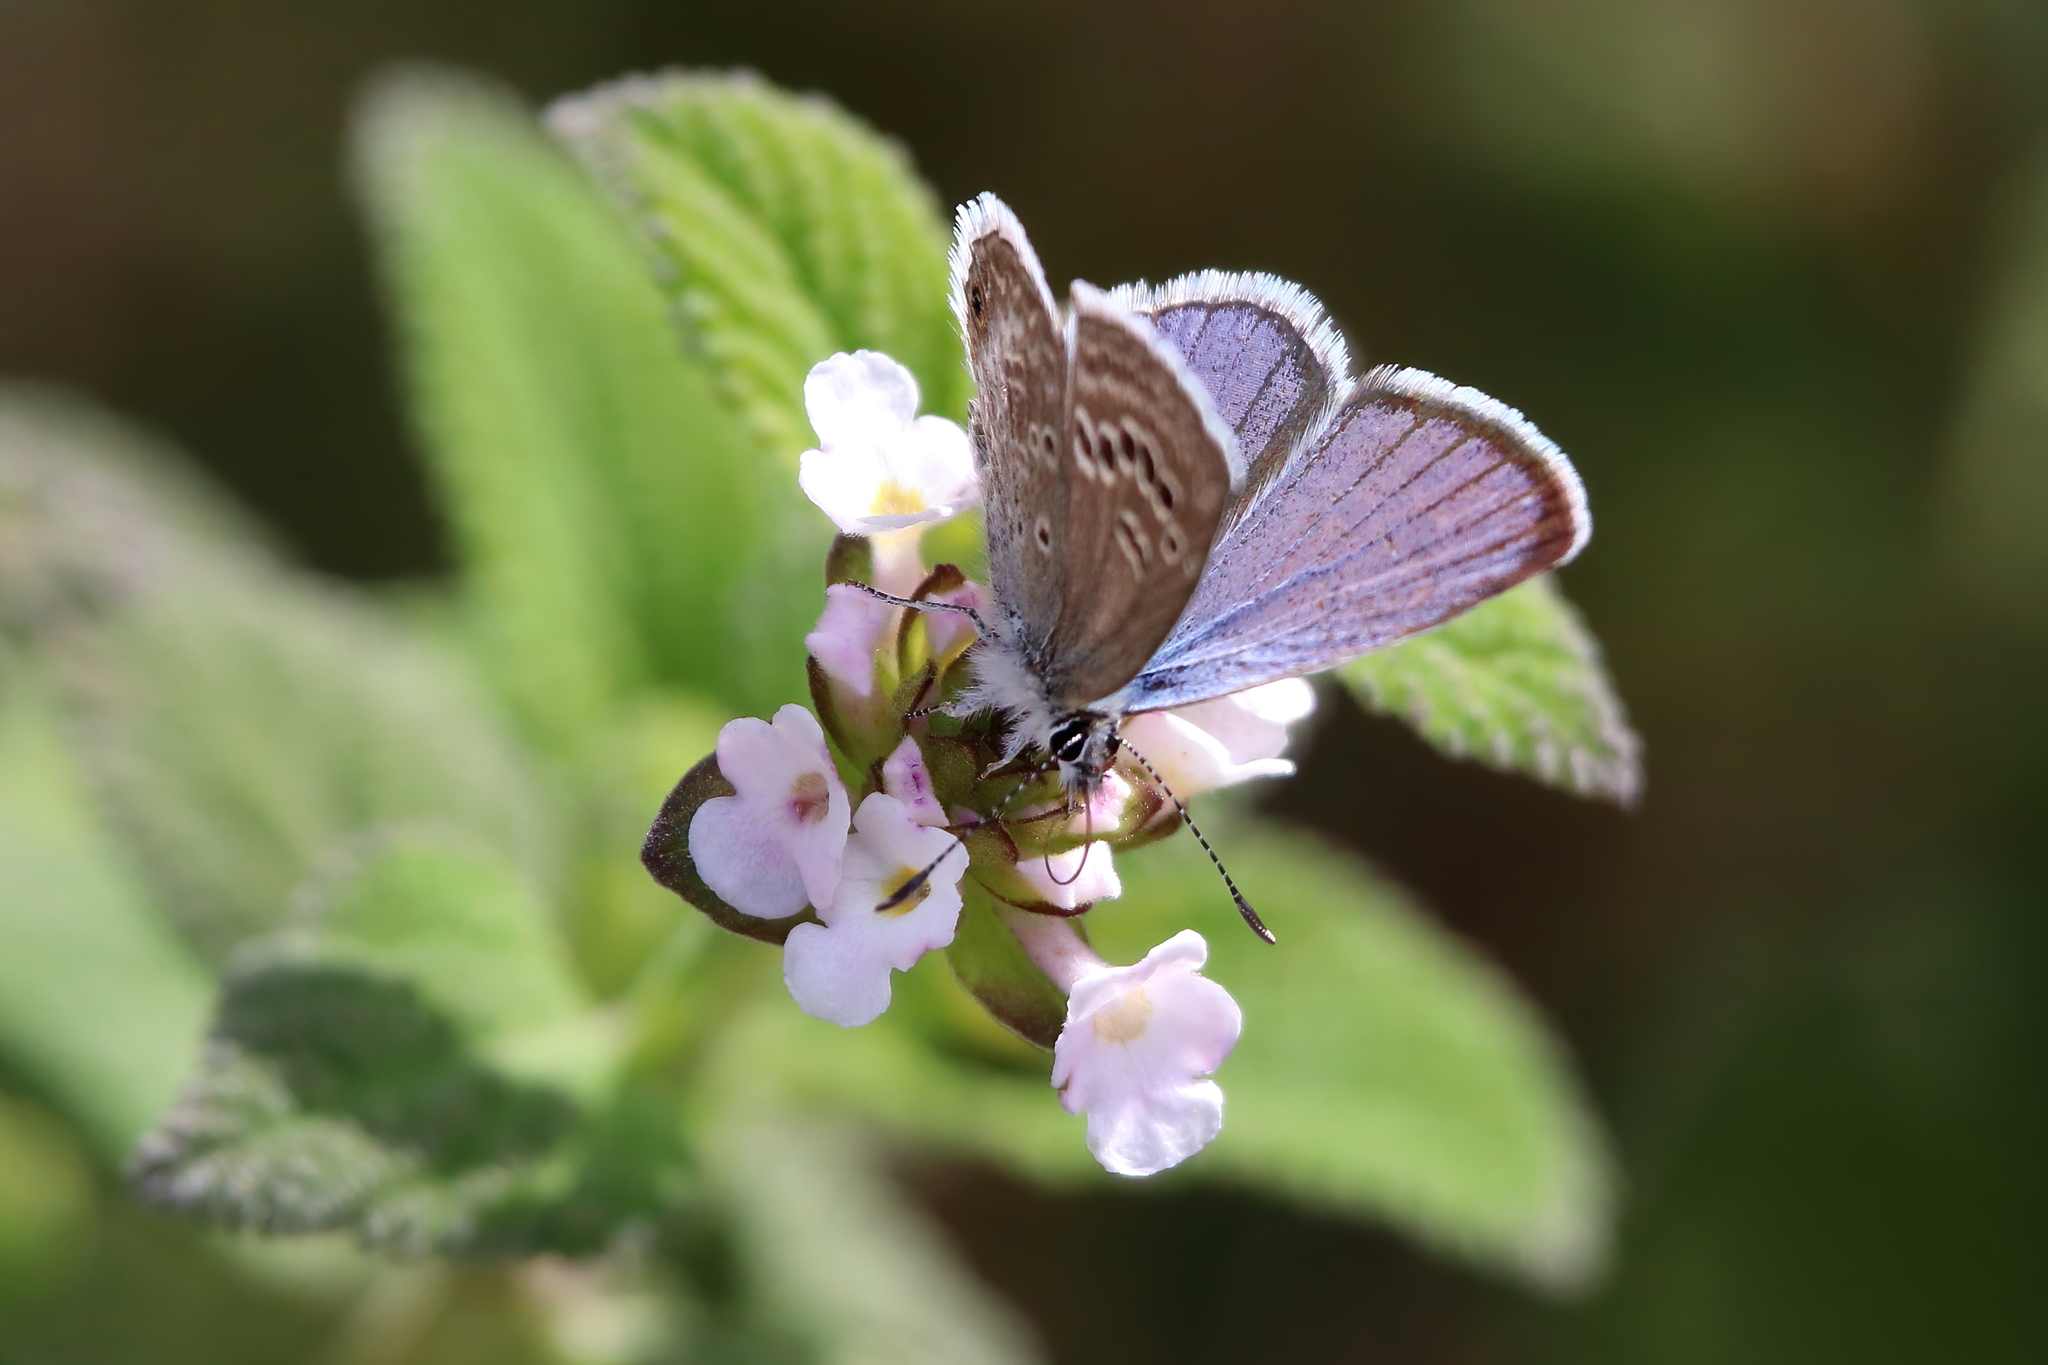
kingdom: Animalia
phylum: Arthropoda
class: Insecta
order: Lepidoptera
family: Lycaenidae
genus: Echinargus
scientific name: Echinargus isola
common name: Reakirt's blue
